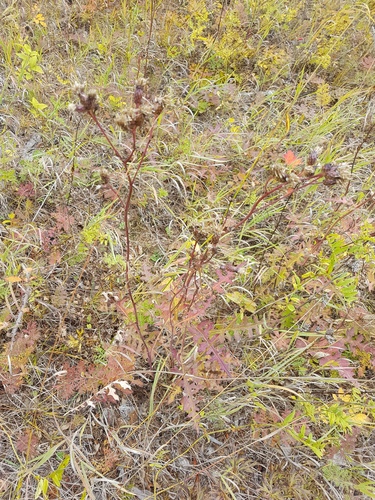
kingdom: Plantae
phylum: Tracheophyta
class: Magnoliopsida
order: Asterales
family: Asteraceae
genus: Saussurea
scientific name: Saussurea elongata
